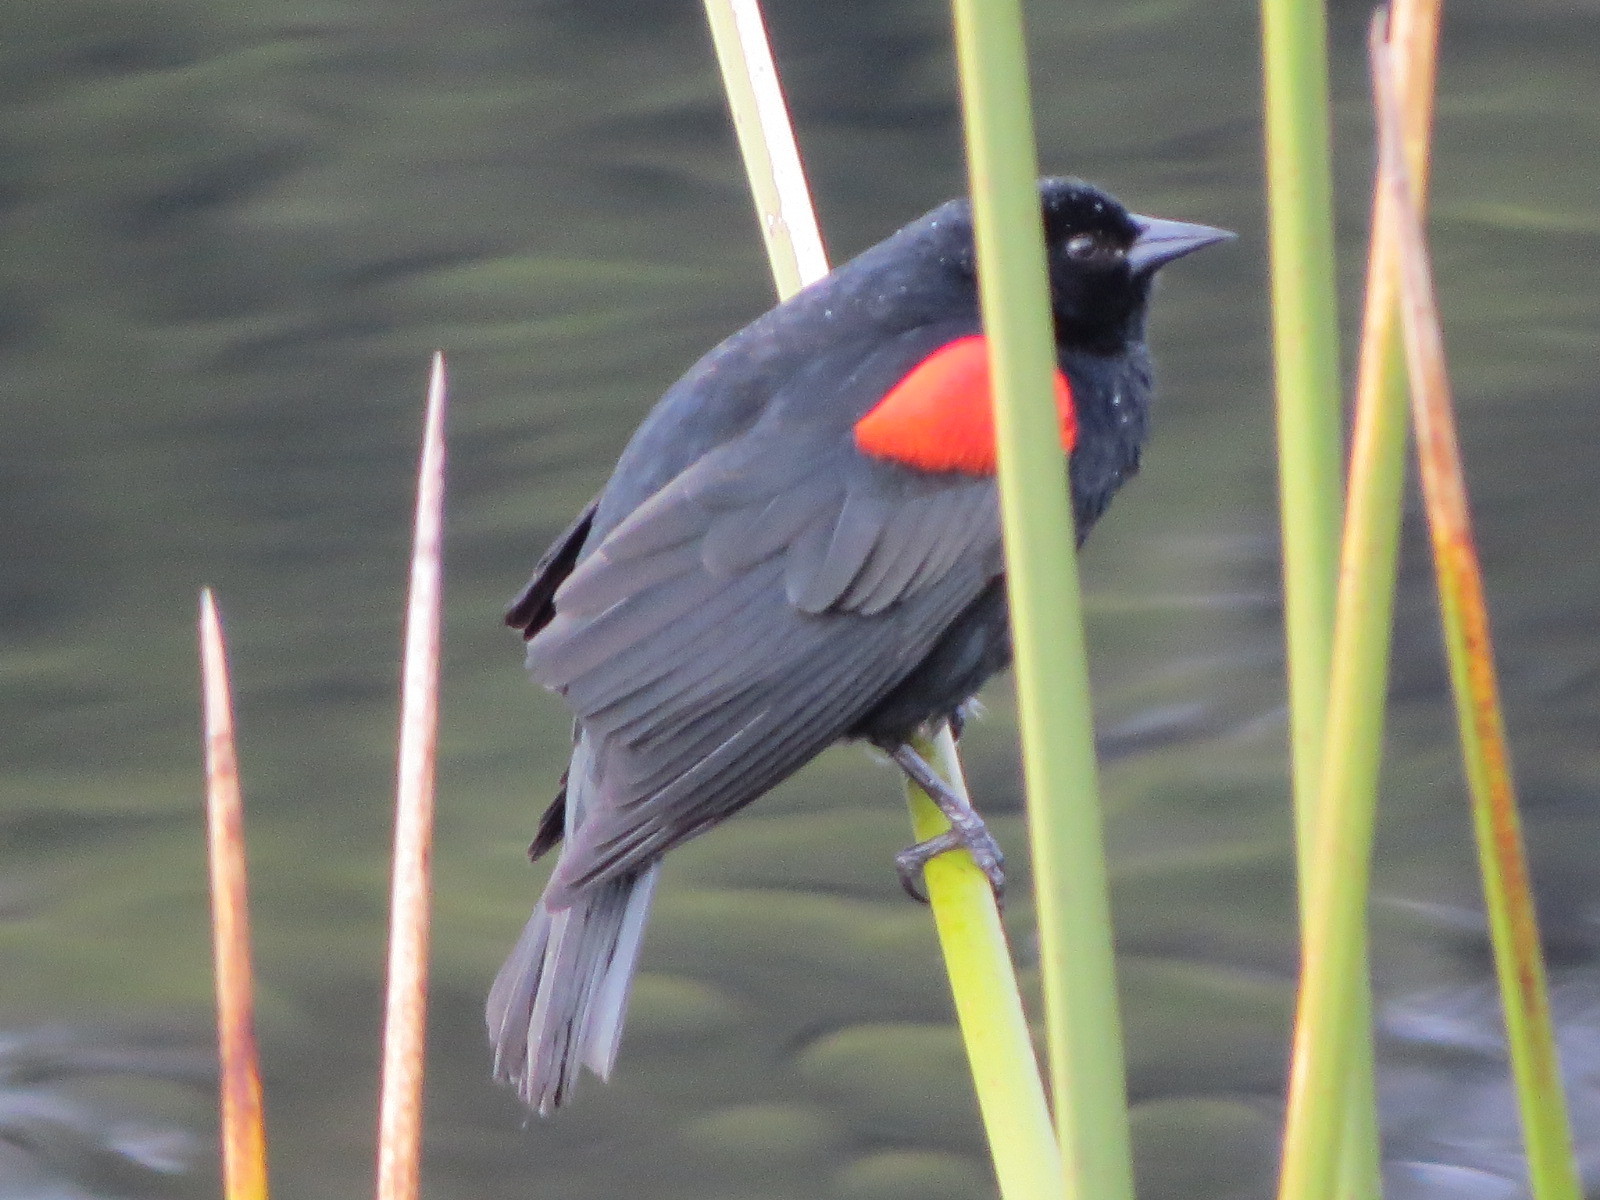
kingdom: Animalia
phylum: Chordata
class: Aves
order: Passeriformes
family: Icteridae
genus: Agelaius
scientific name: Agelaius phoeniceus
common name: Red-winged blackbird
